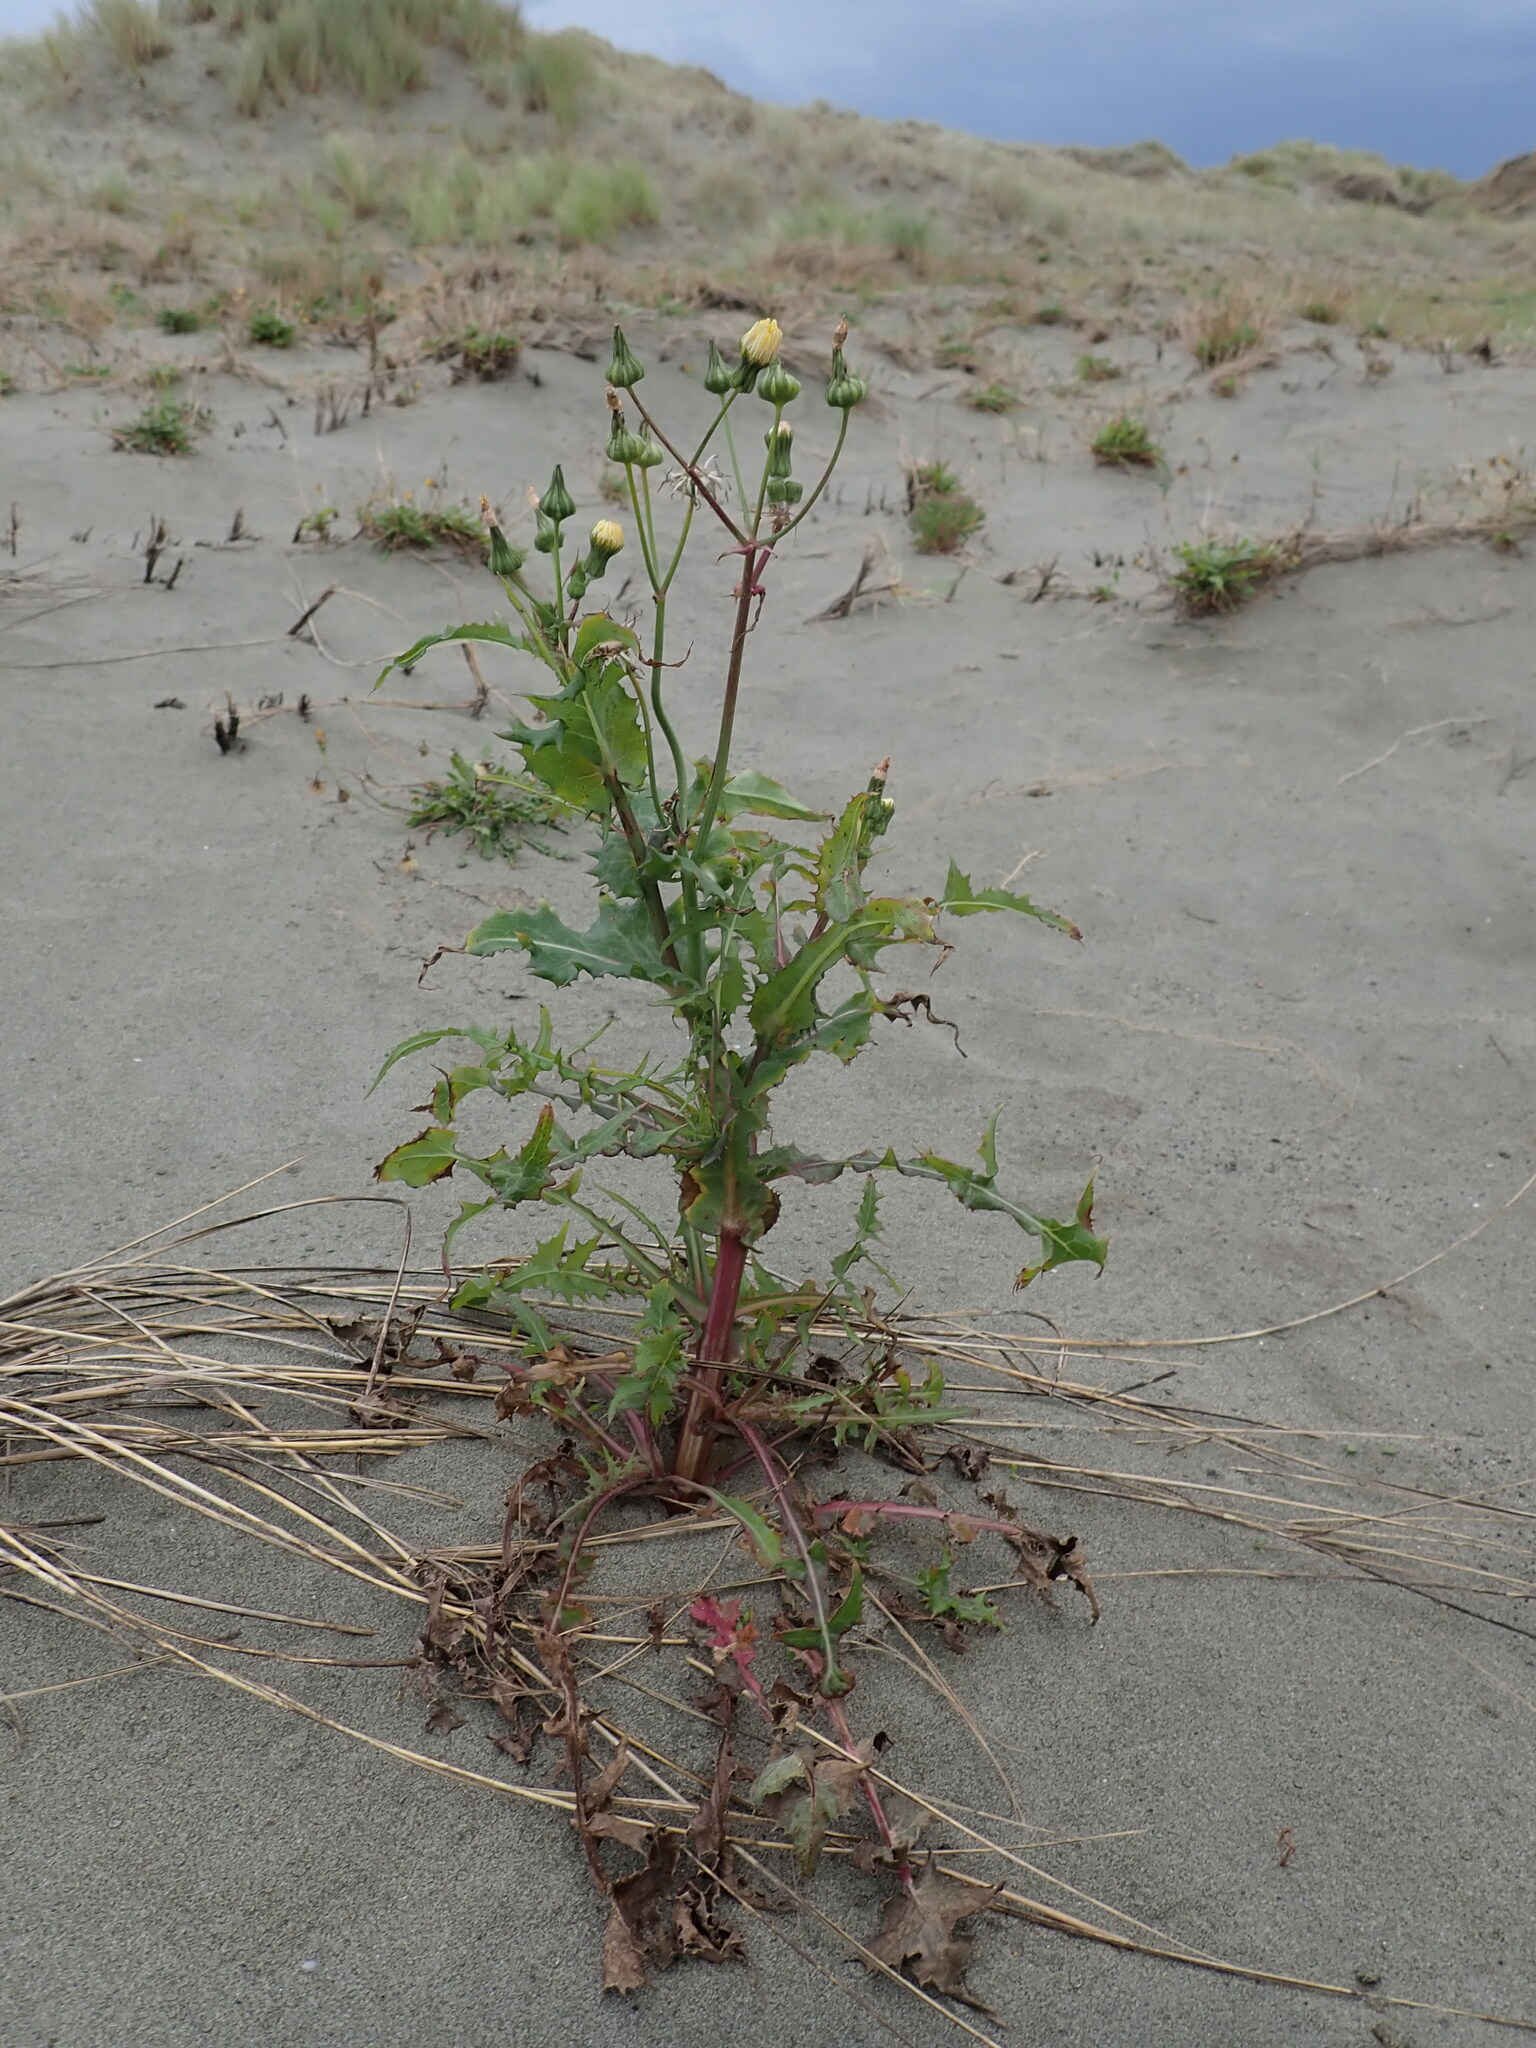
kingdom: Plantae
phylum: Tracheophyta
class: Magnoliopsida
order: Asterales
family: Asteraceae
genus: Sonchus
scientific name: Sonchus oleraceus
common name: Common sowthistle
